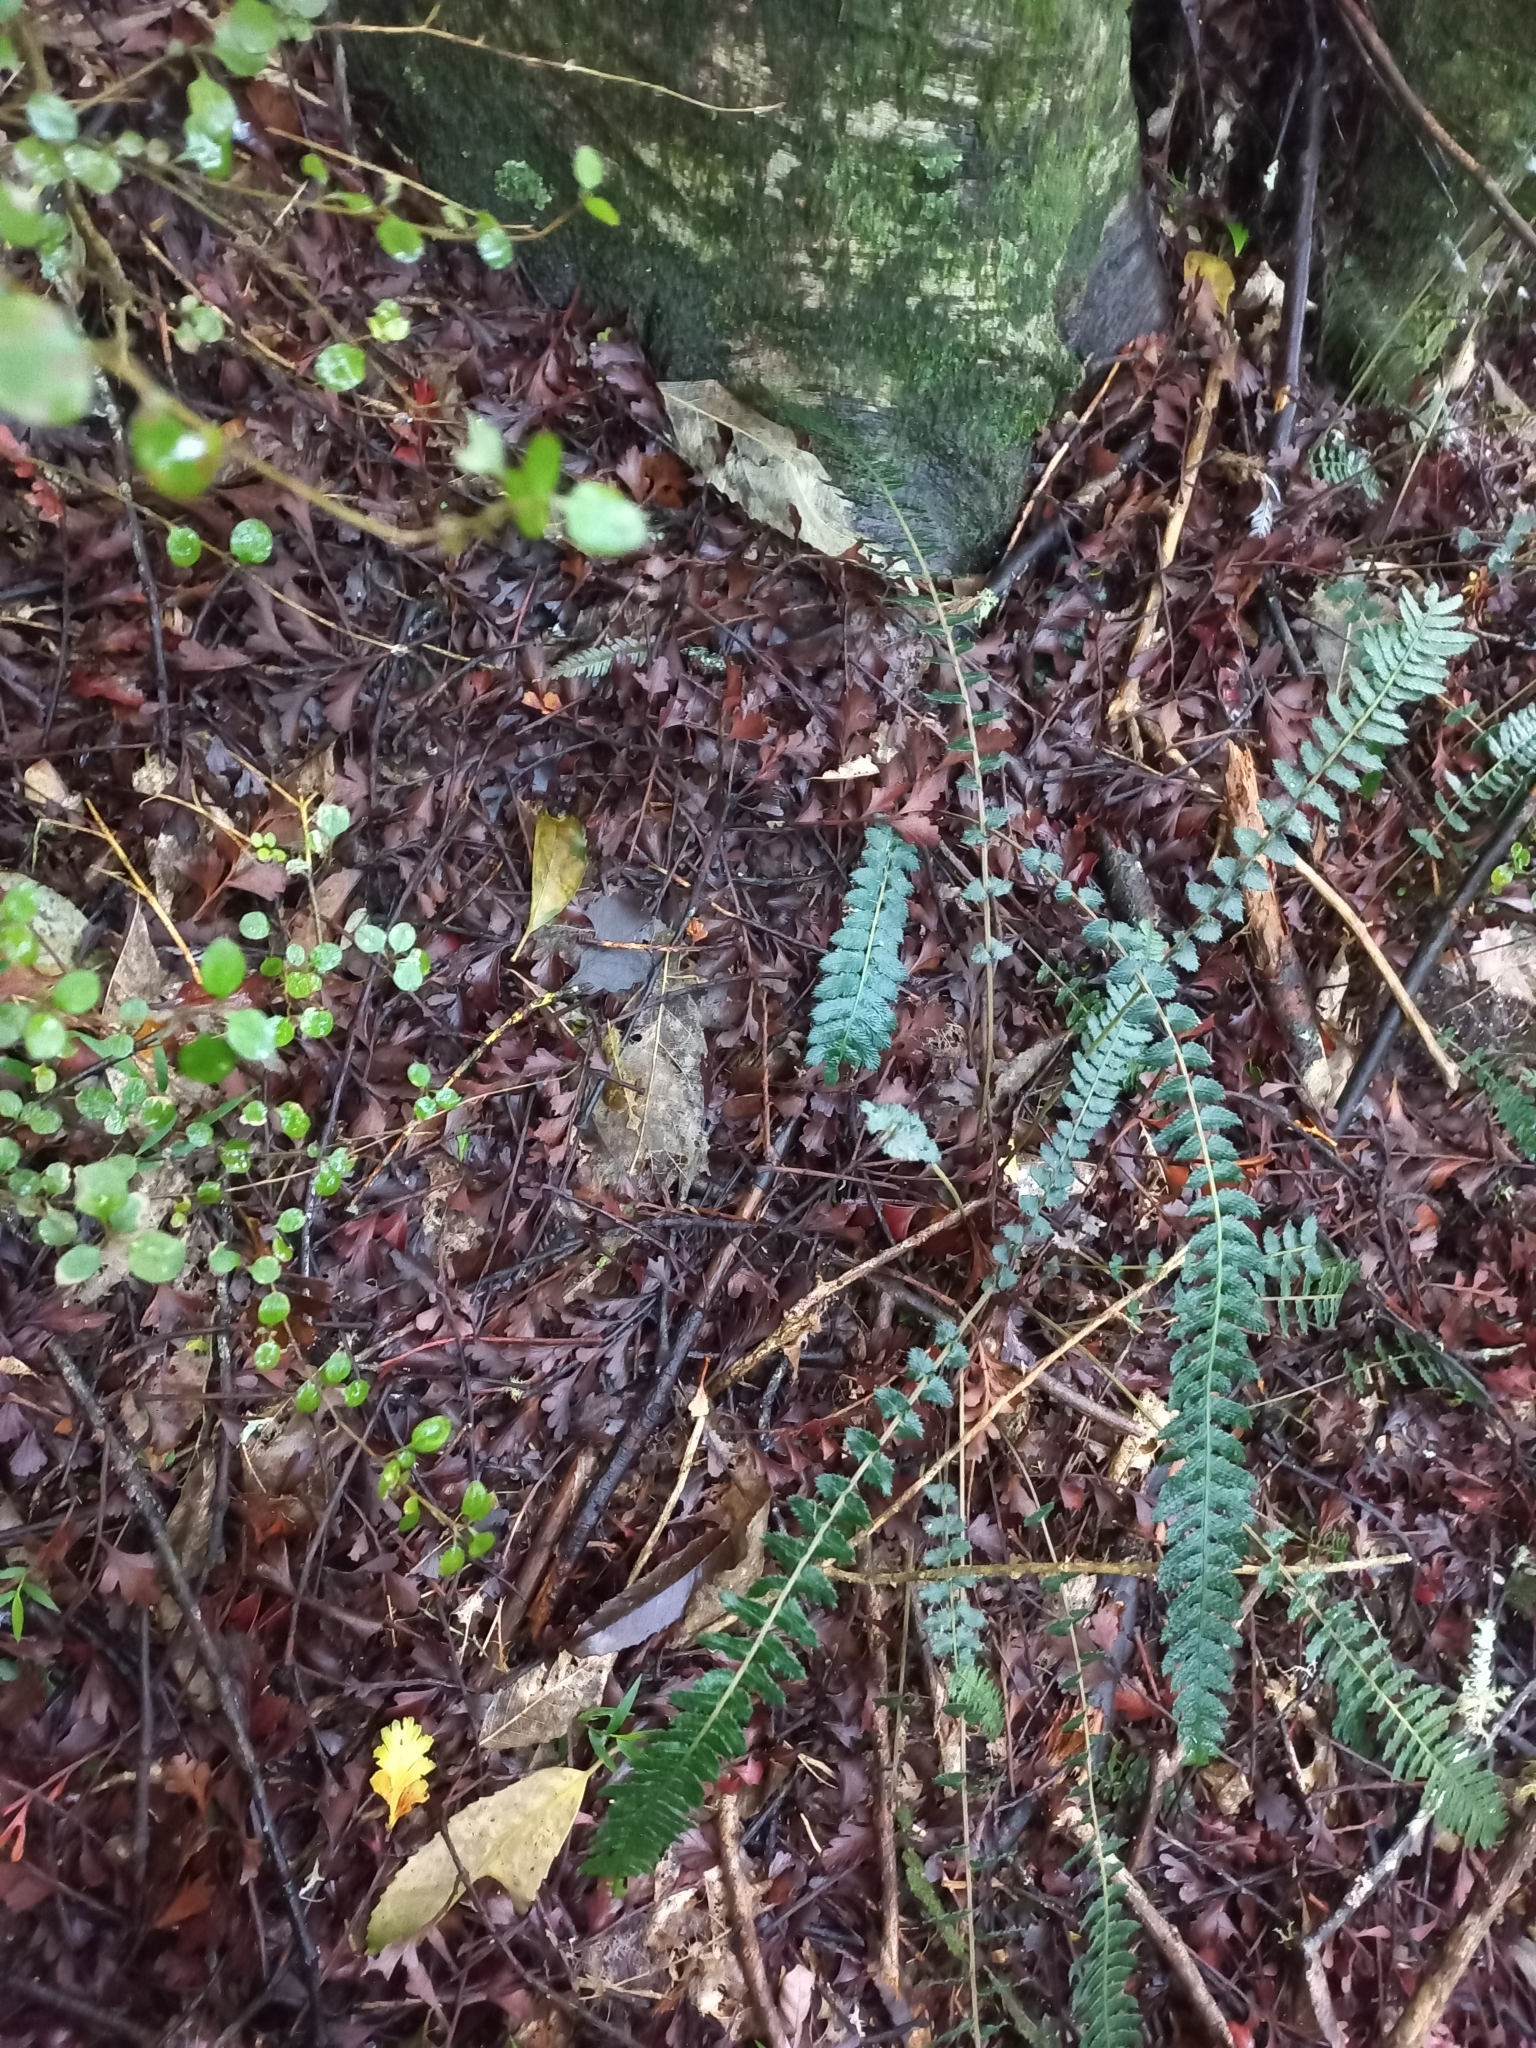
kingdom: Plantae
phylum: Tracheophyta
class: Polypodiopsida
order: Polypodiales
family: Blechnaceae
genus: Doodia
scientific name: Doodia australis
